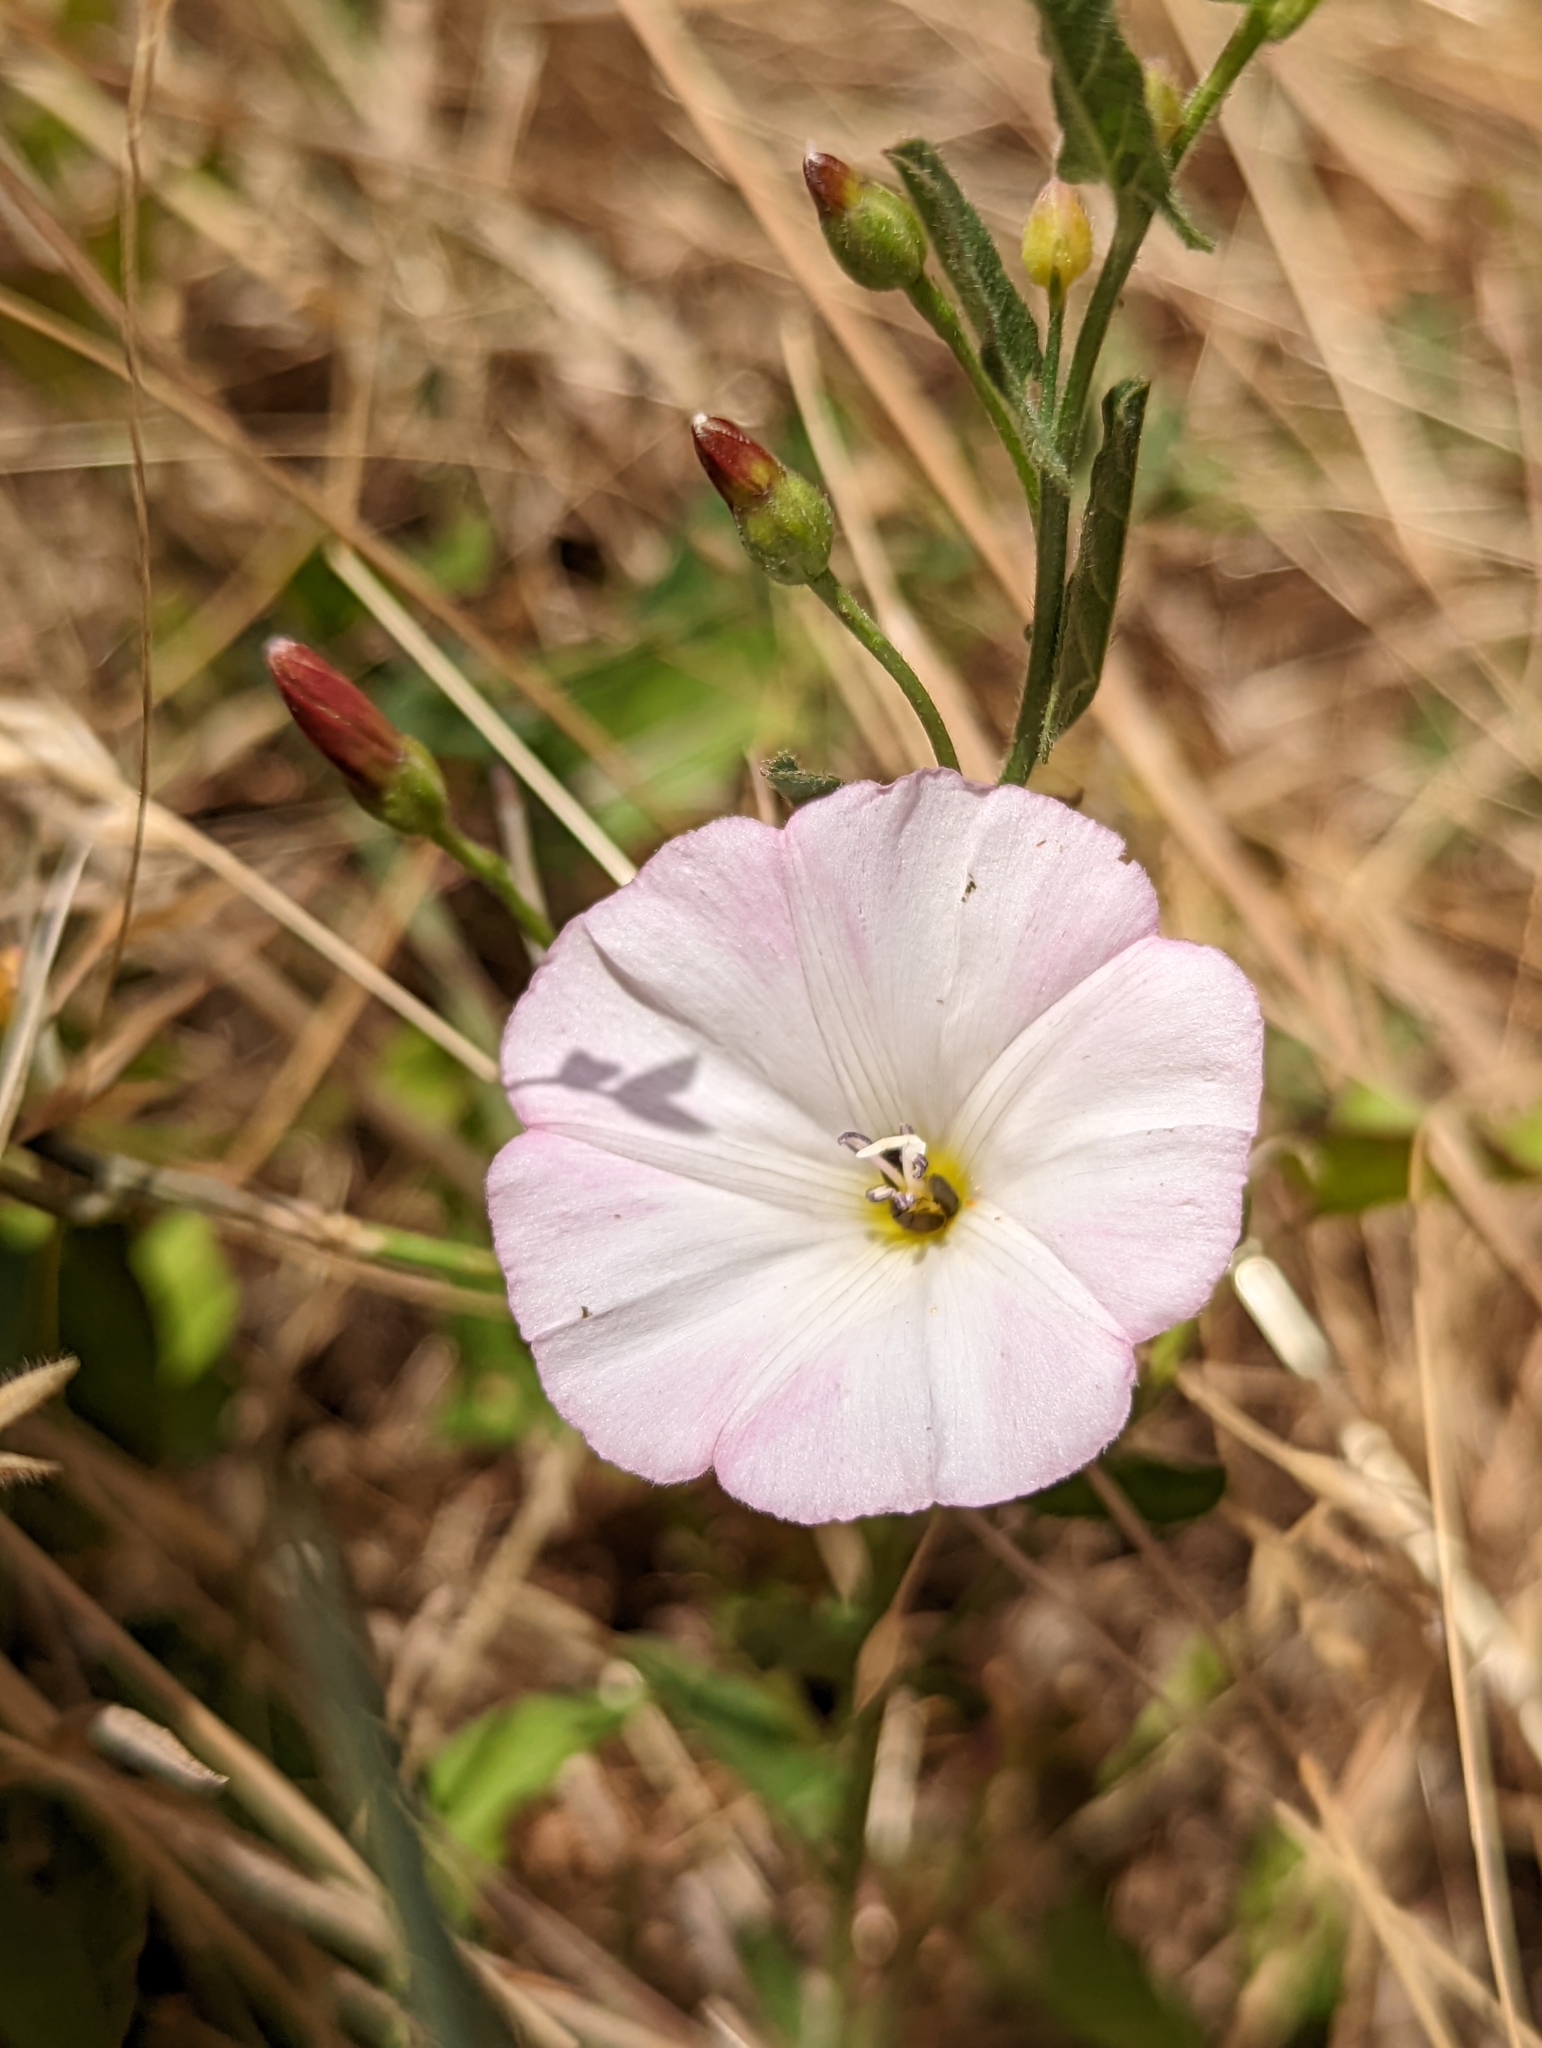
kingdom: Plantae
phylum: Tracheophyta
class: Magnoliopsida
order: Solanales
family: Convolvulaceae
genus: Convolvulus
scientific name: Convolvulus arvensis
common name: Field bindweed
